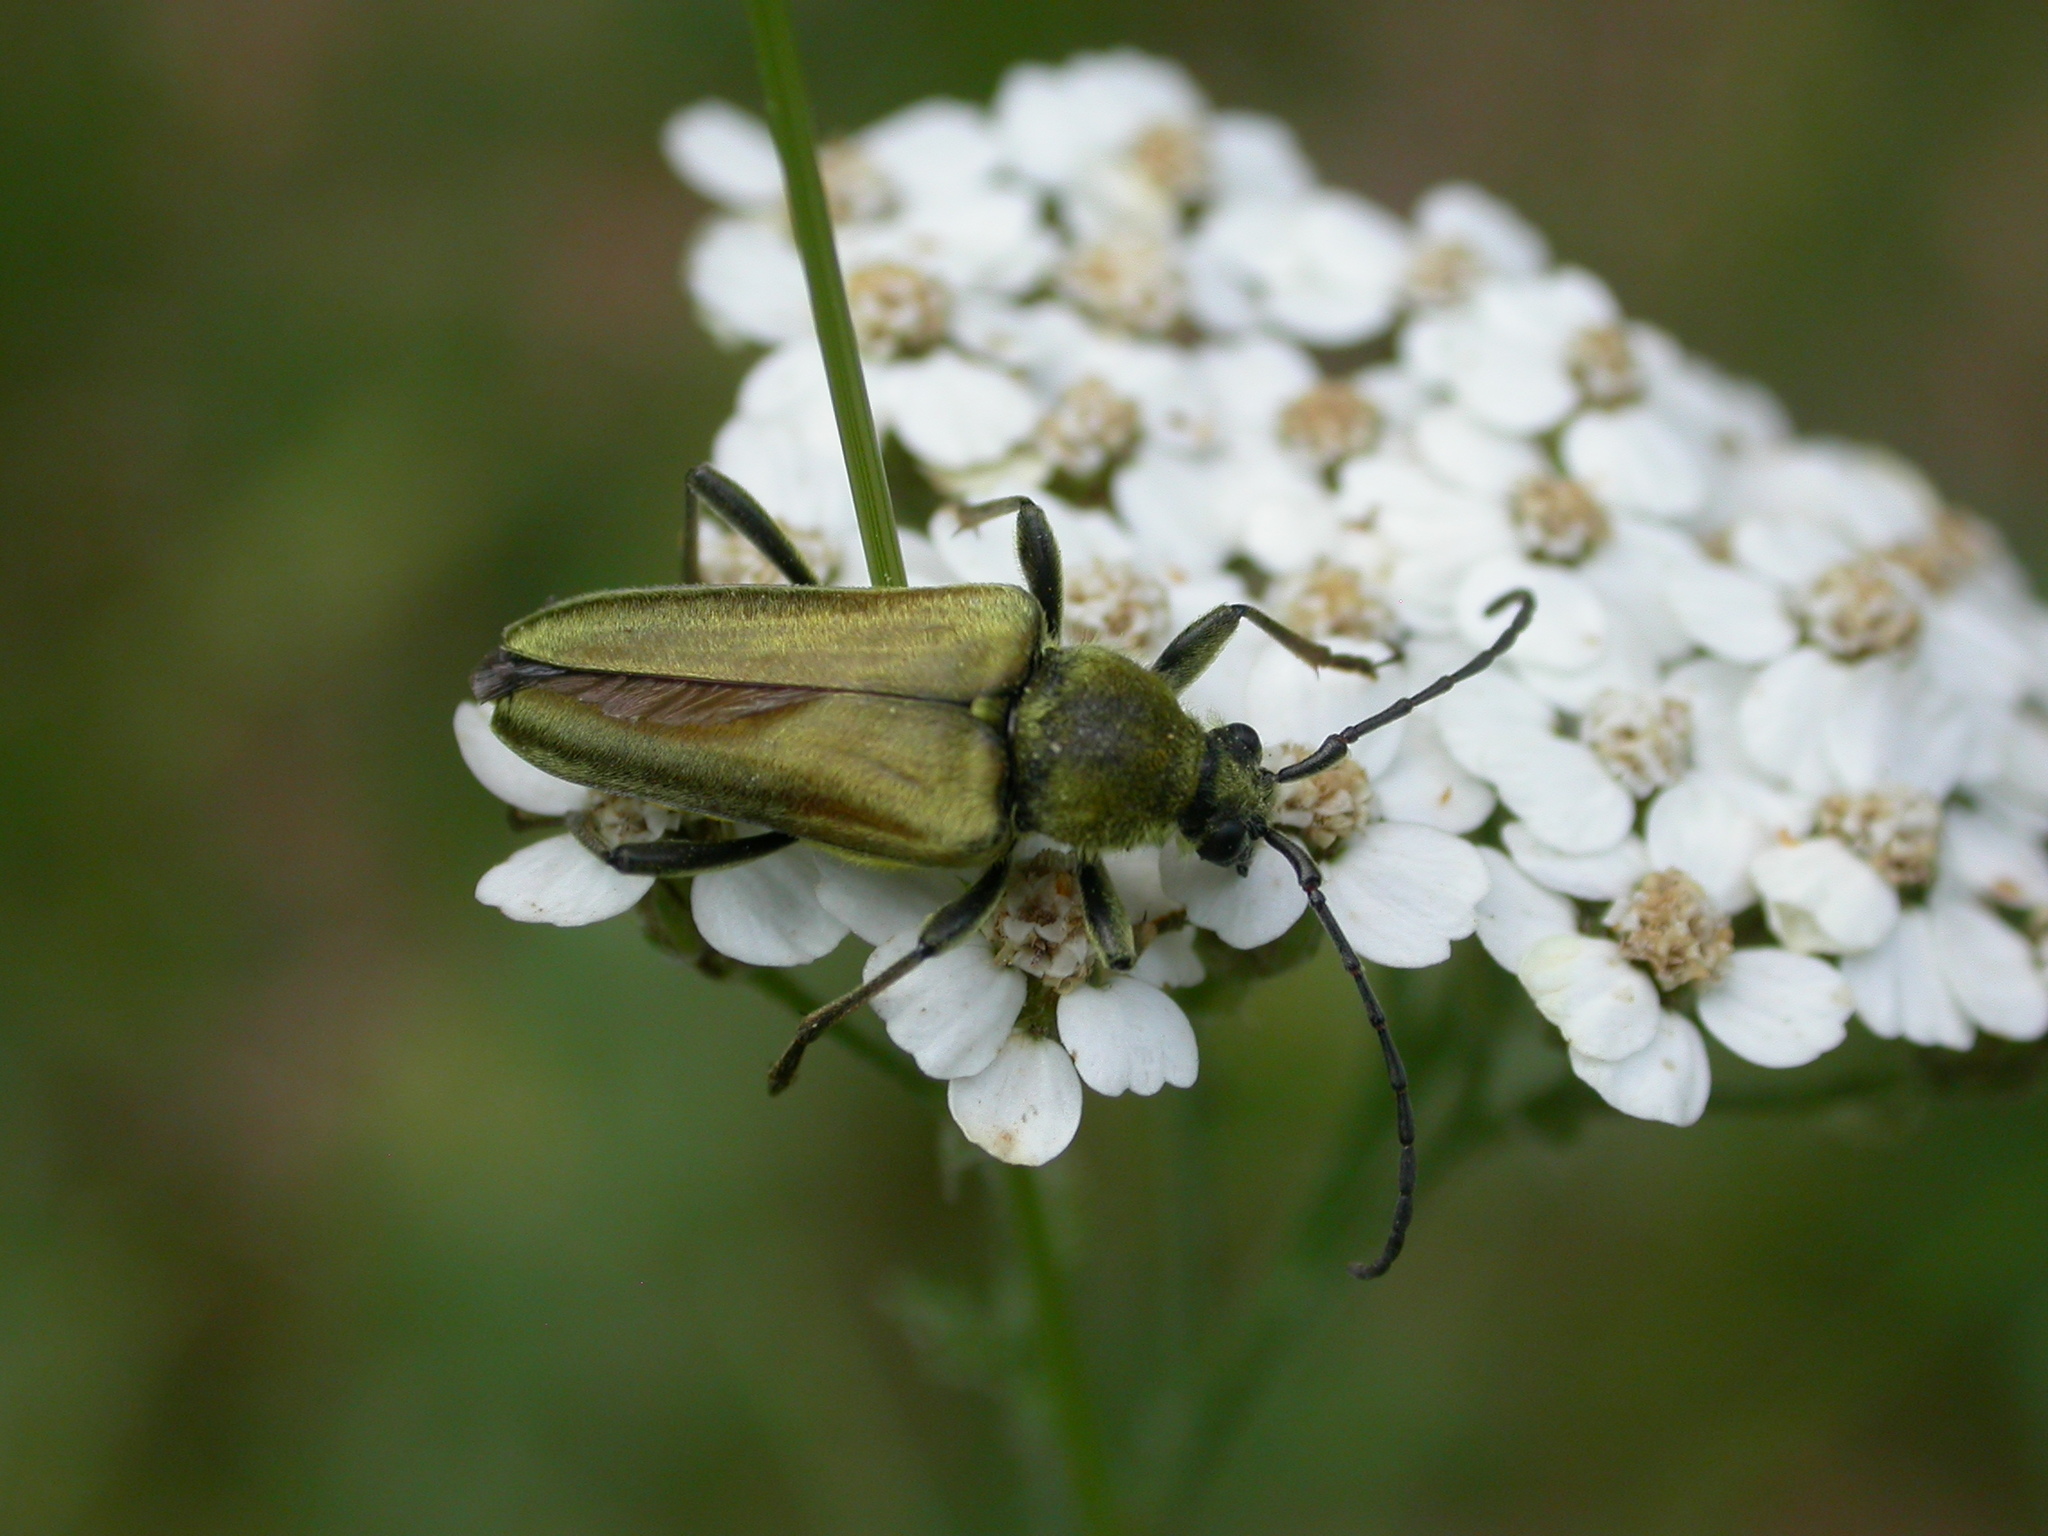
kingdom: Animalia
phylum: Arthropoda
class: Insecta
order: Coleoptera
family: Cerambycidae
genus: Cosmosalia
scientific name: Cosmosalia chrysocoma
